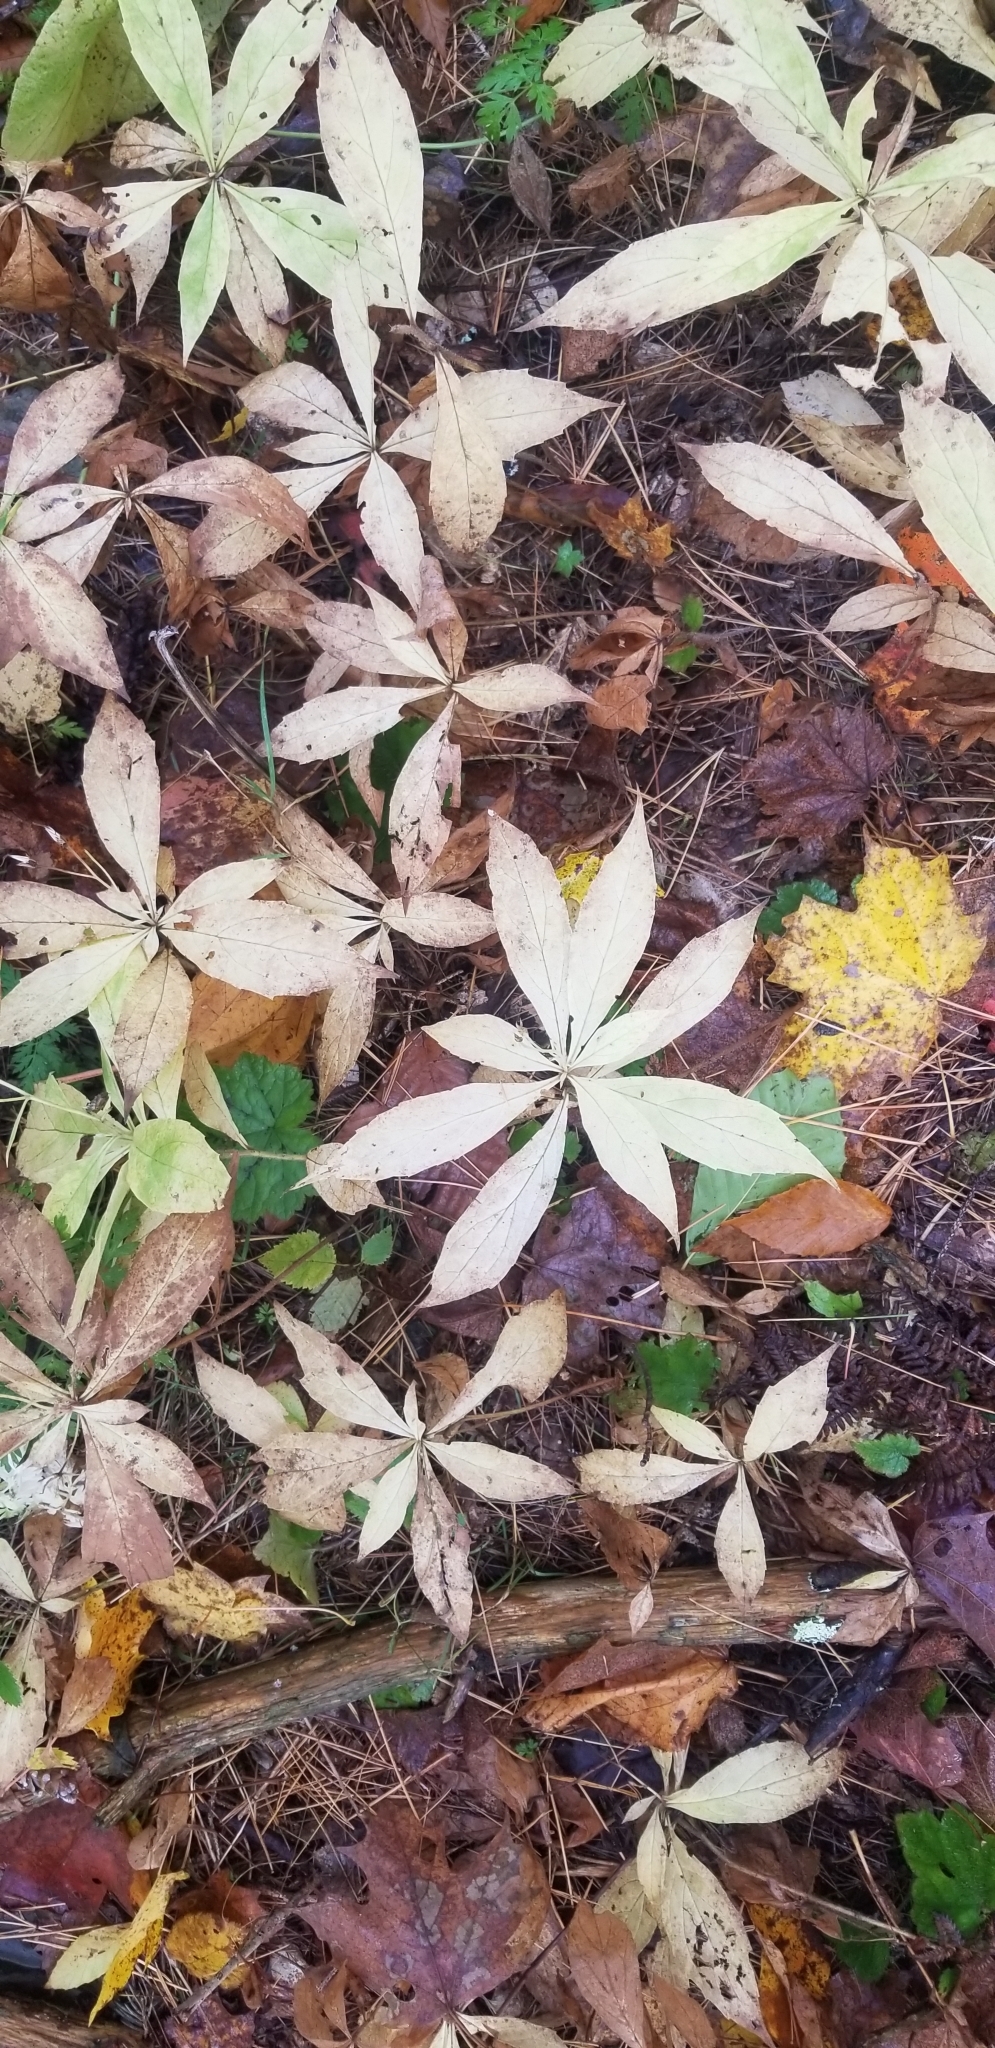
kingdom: Plantae
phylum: Tracheophyta
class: Magnoliopsida
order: Ericales
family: Primulaceae
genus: Lysimachia
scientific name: Lysimachia borealis
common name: American starflower
